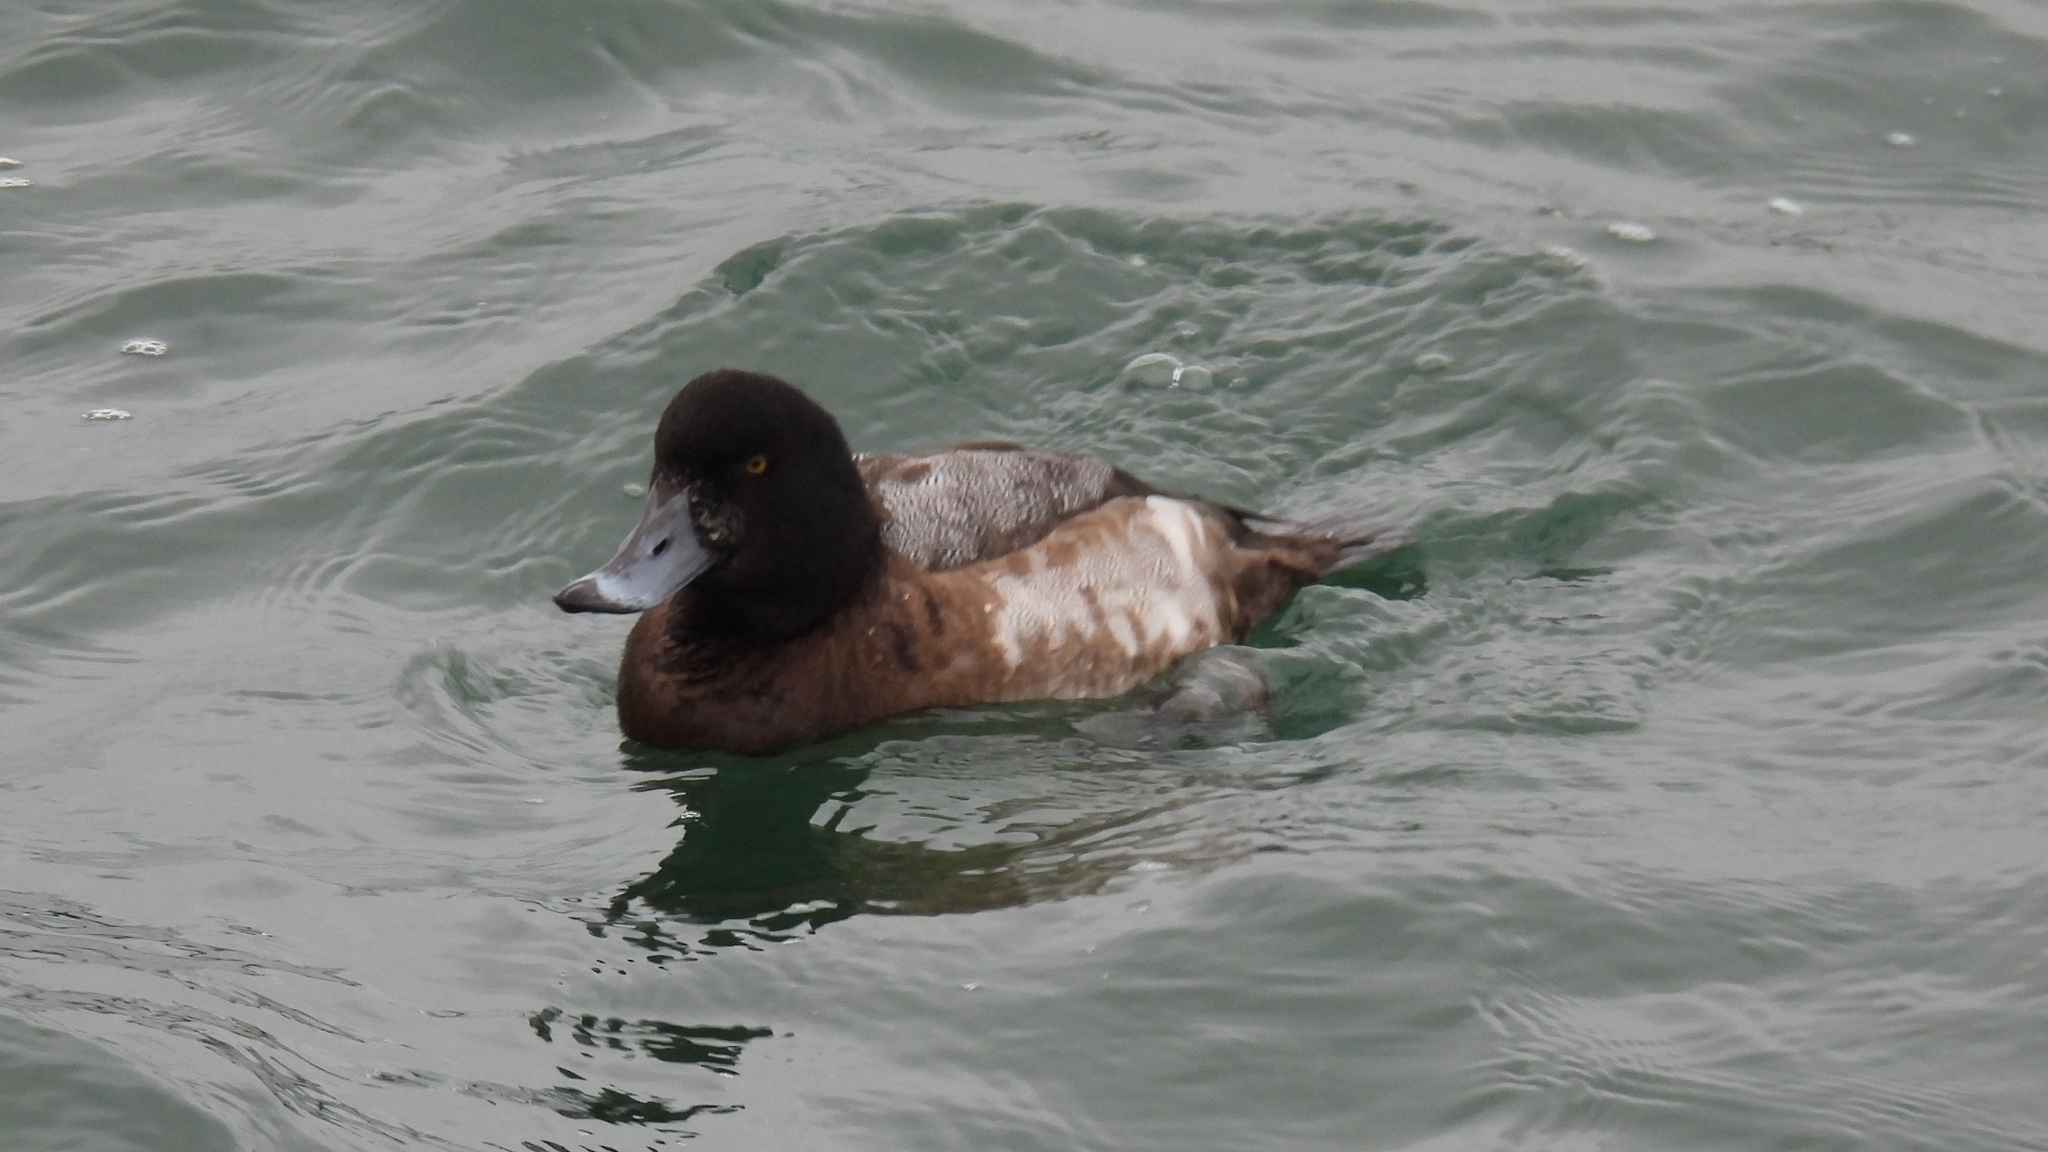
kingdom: Animalia
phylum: Chordata
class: Aves
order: Anseriformes
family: Anatidae
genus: Aythya
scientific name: Aythya marila
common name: Greater scaup
